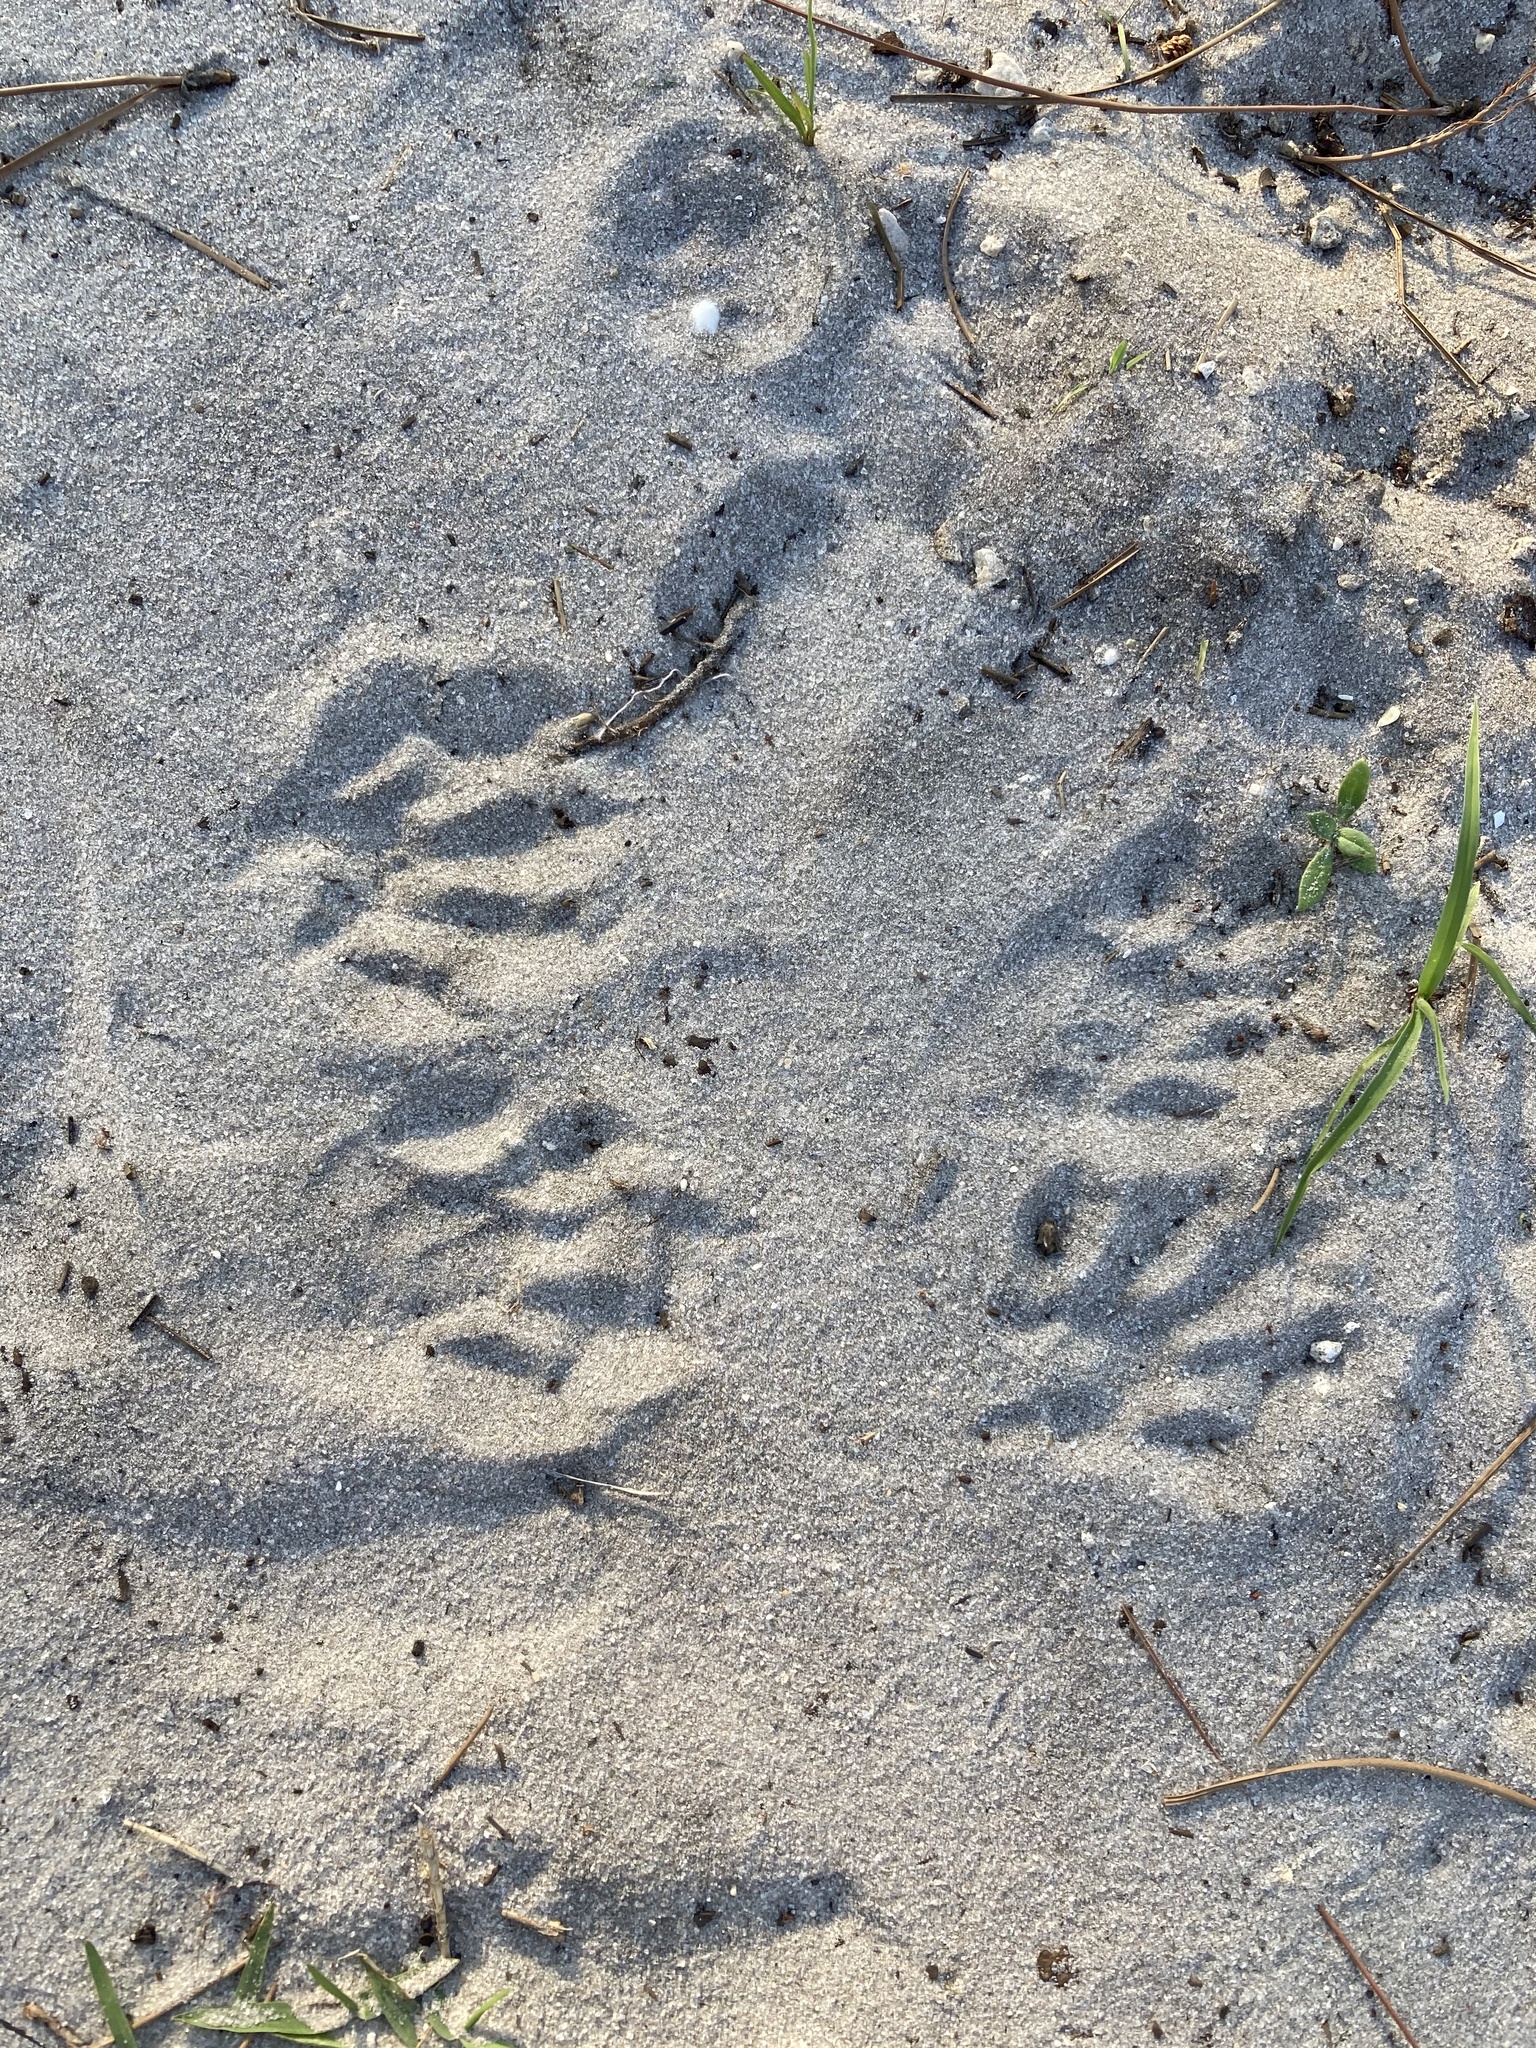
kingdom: Animalia
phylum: Chordata
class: Mammalia
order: Carnivora
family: Procyonidae
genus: Procyon
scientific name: Procyon lotor
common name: Raccoon
